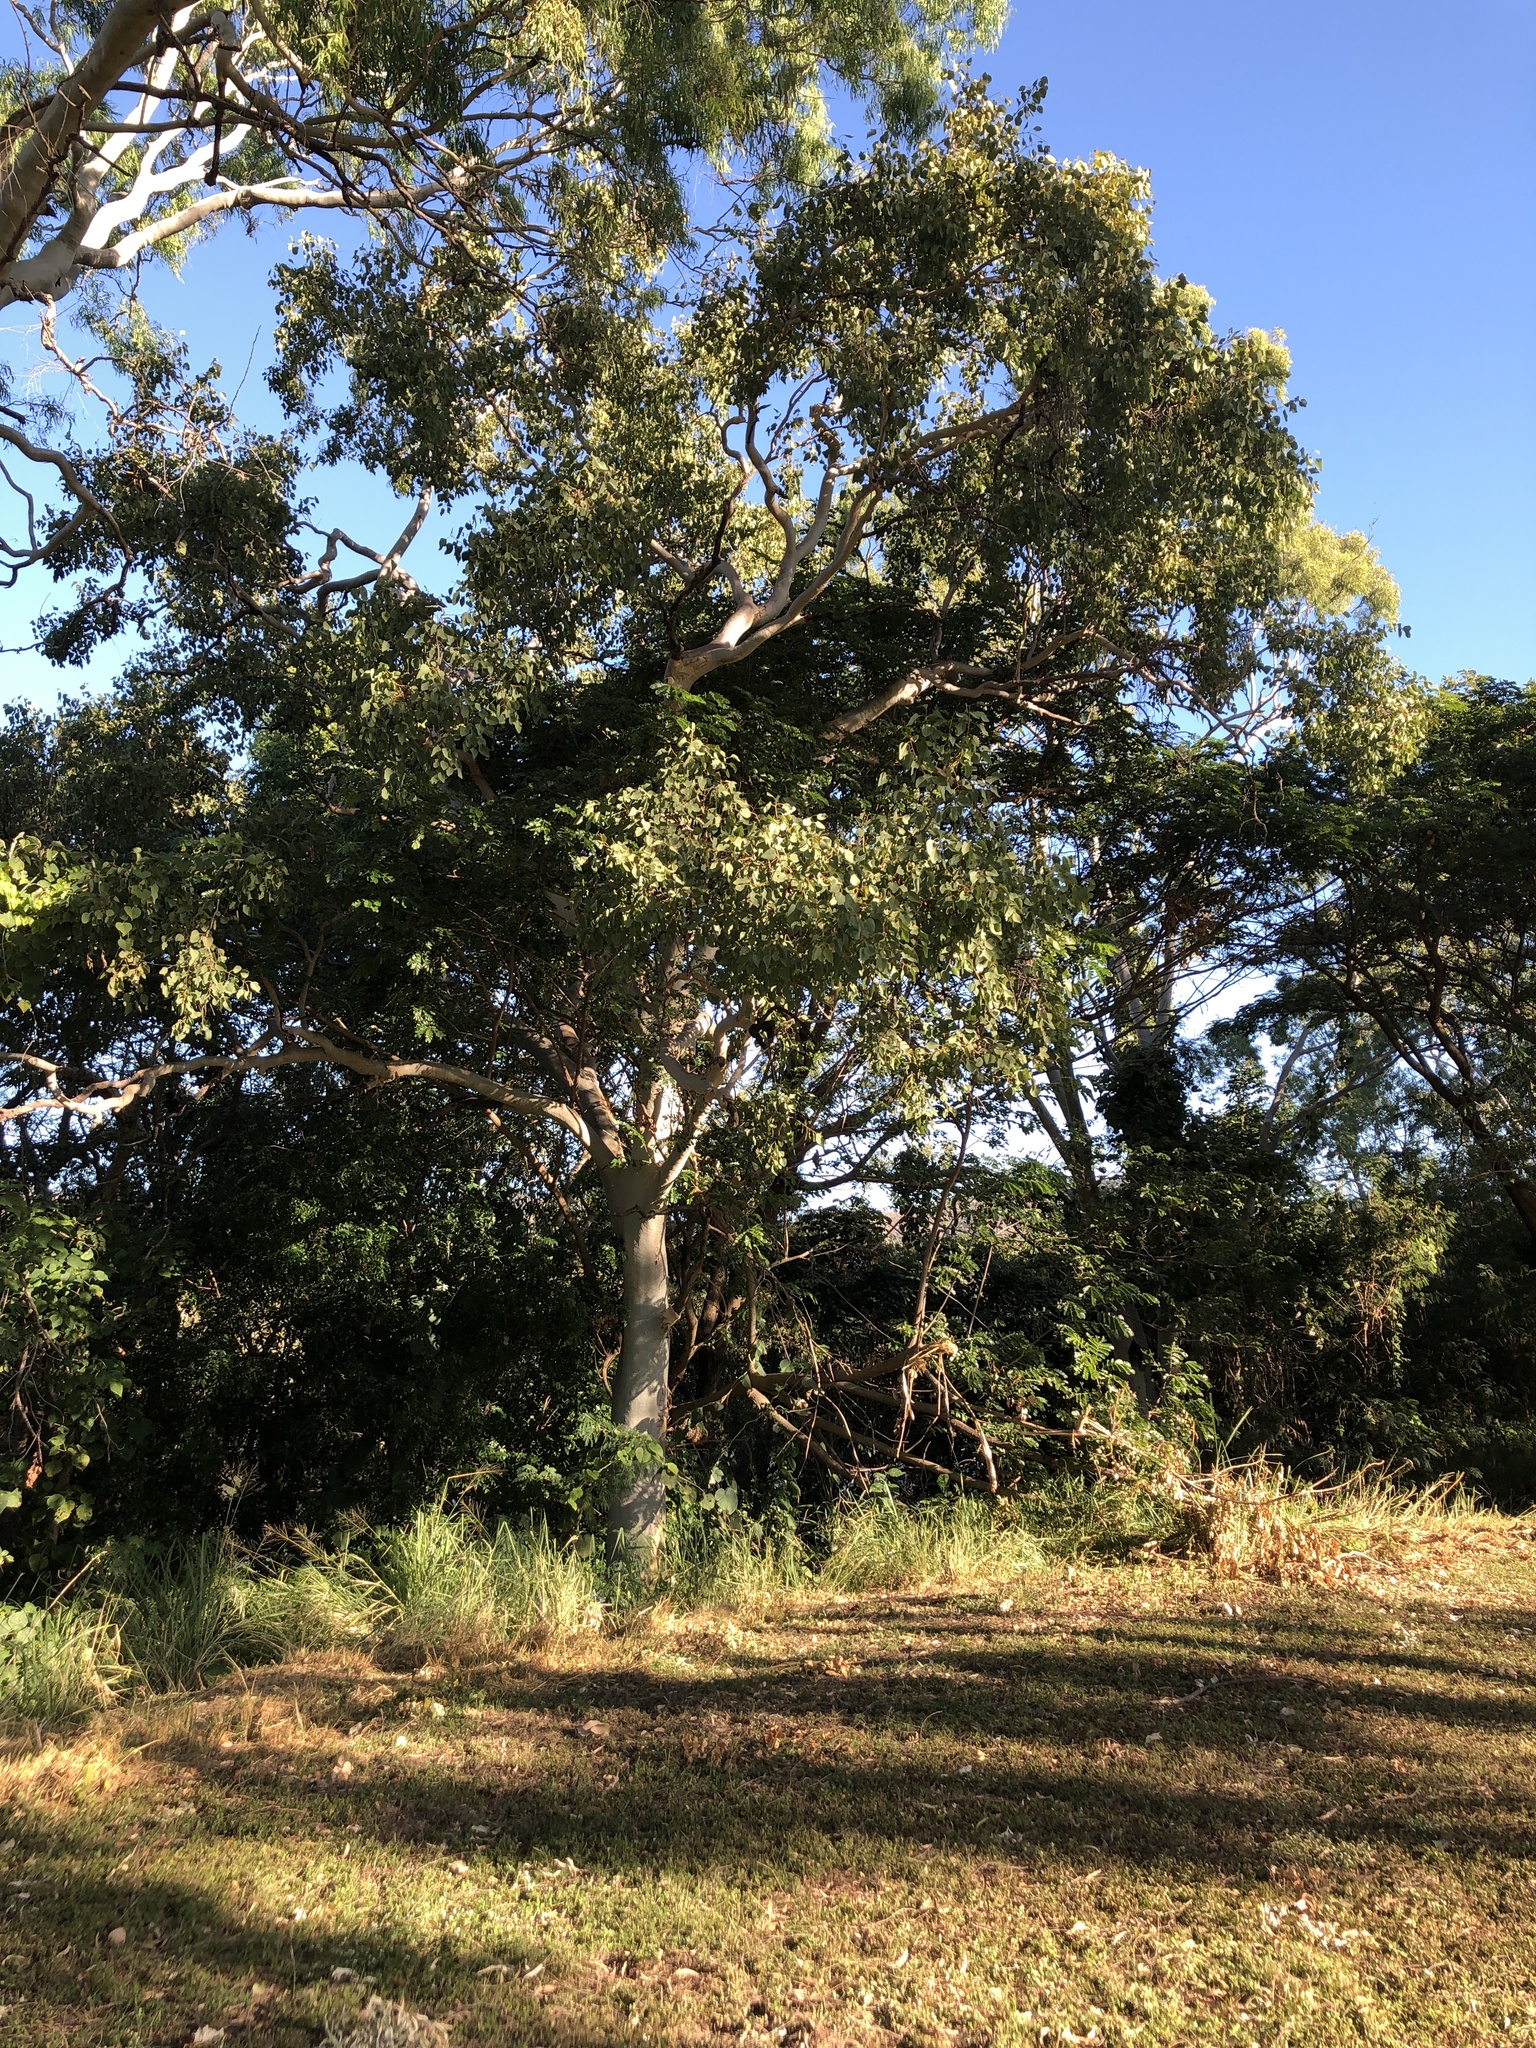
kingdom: Plantae
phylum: Tracheophyta
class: Magnoliopsida
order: Myrtales
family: Myrtaceae
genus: Eucalyptus
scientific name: Eucalyptus platyphylla
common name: Poplar-gum
